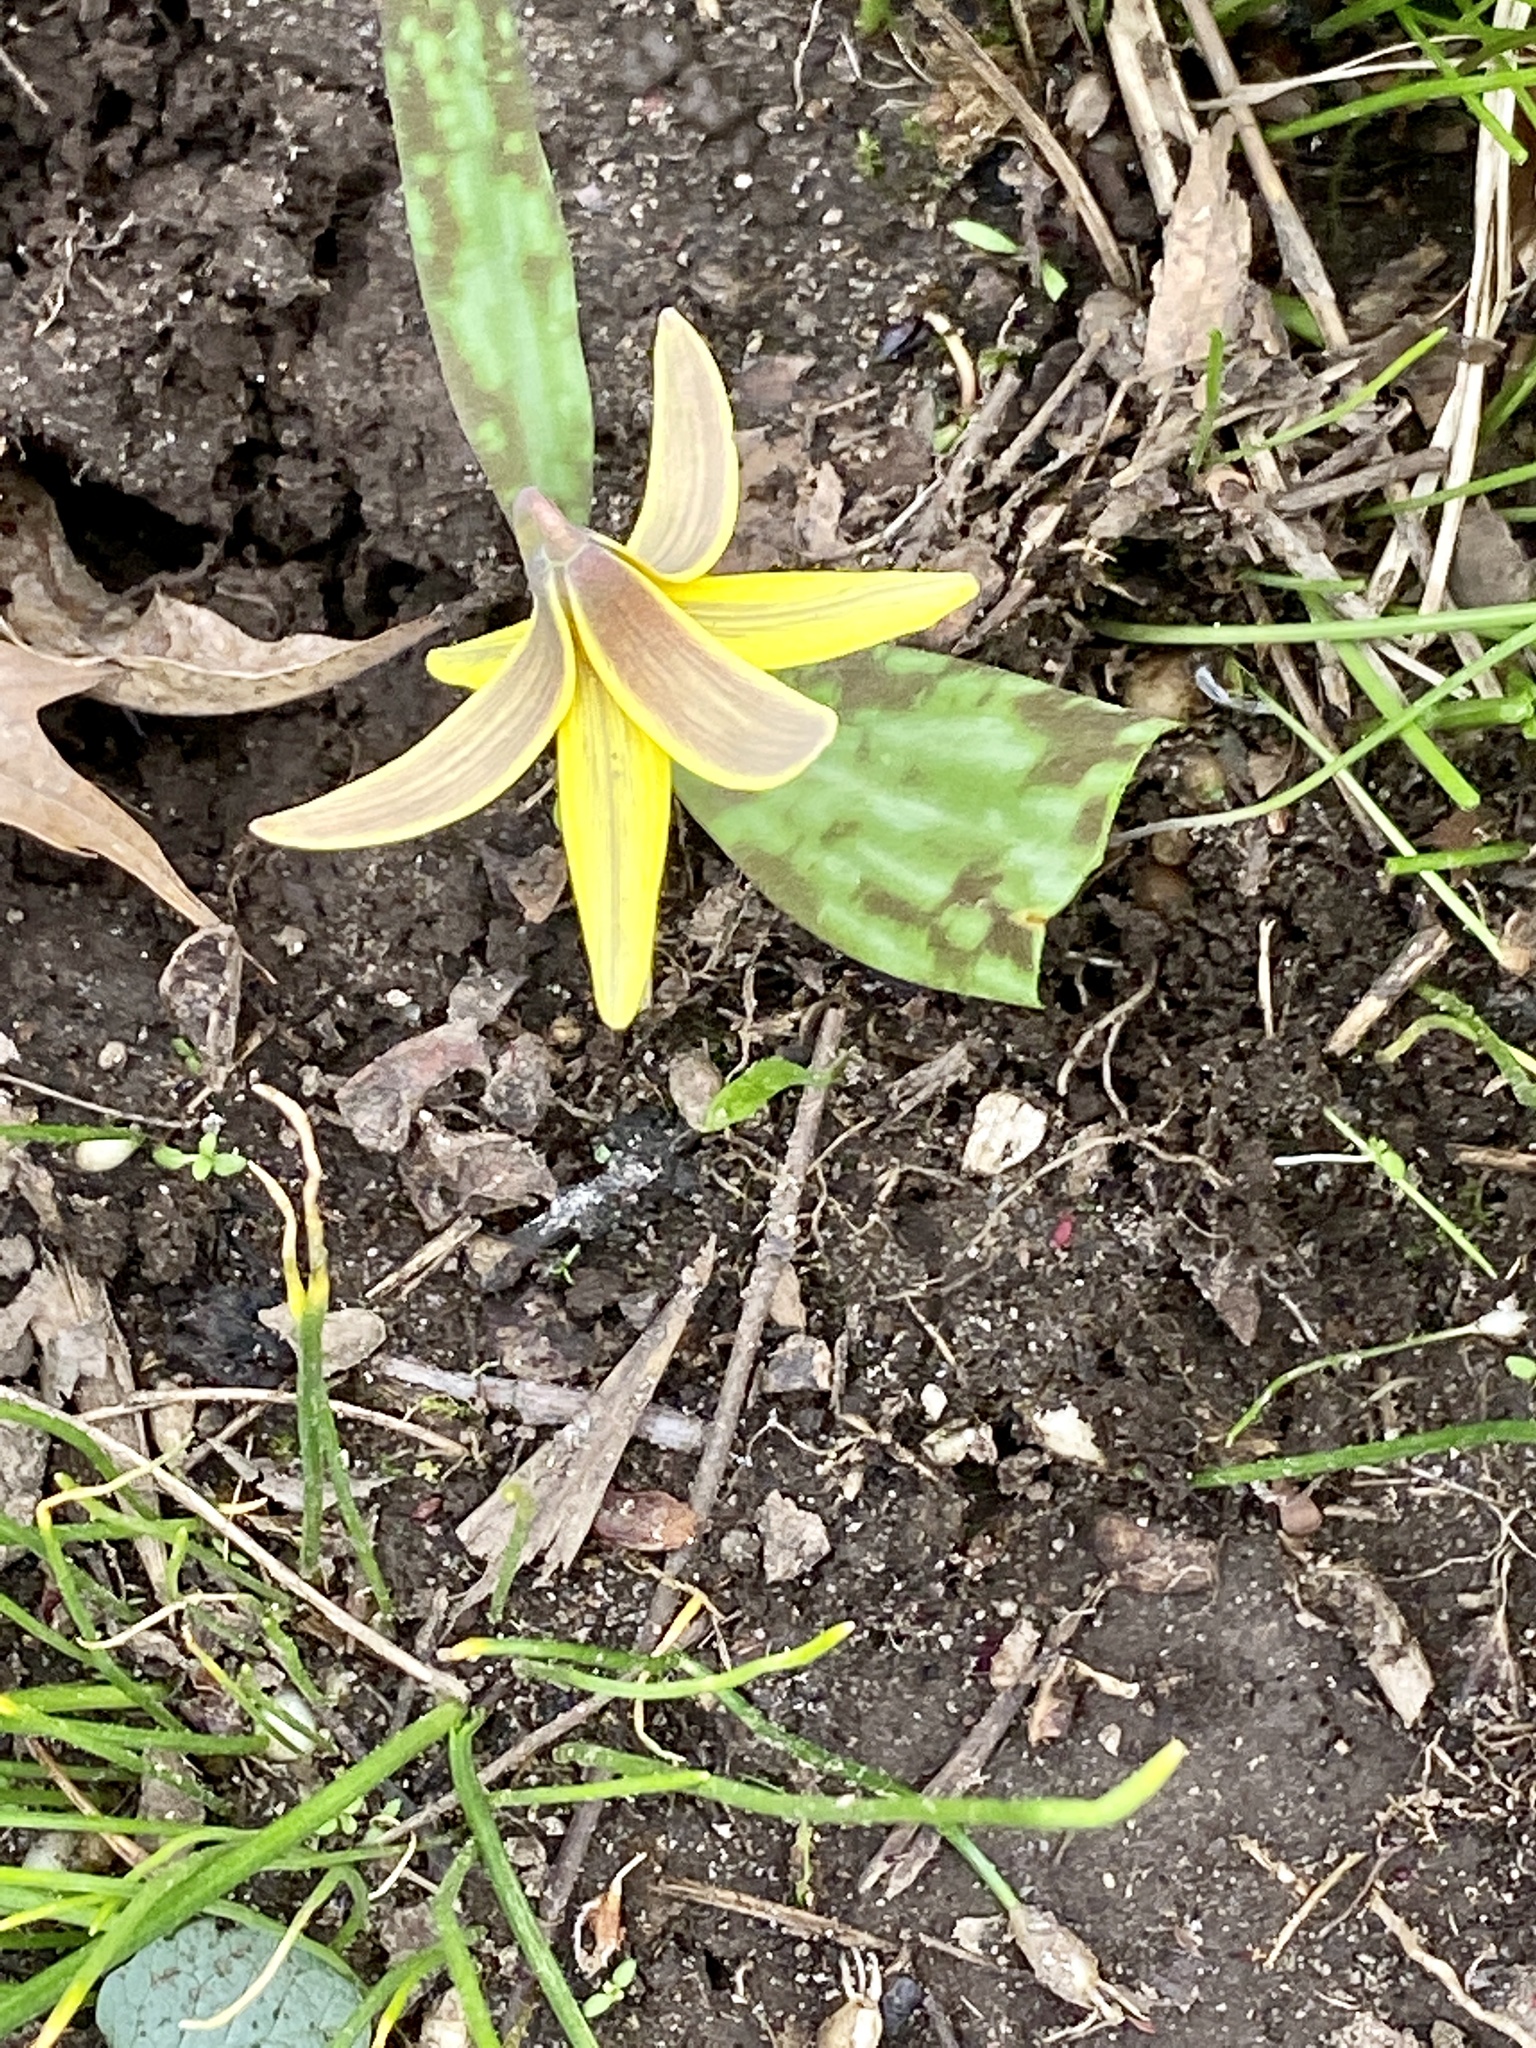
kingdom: Plantae
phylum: Tracheophyta
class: Liliopsida
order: Liliales
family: Liliaceae
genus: Erythronium
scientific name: Erythronium americanum
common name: Yellow adder's-tongue
